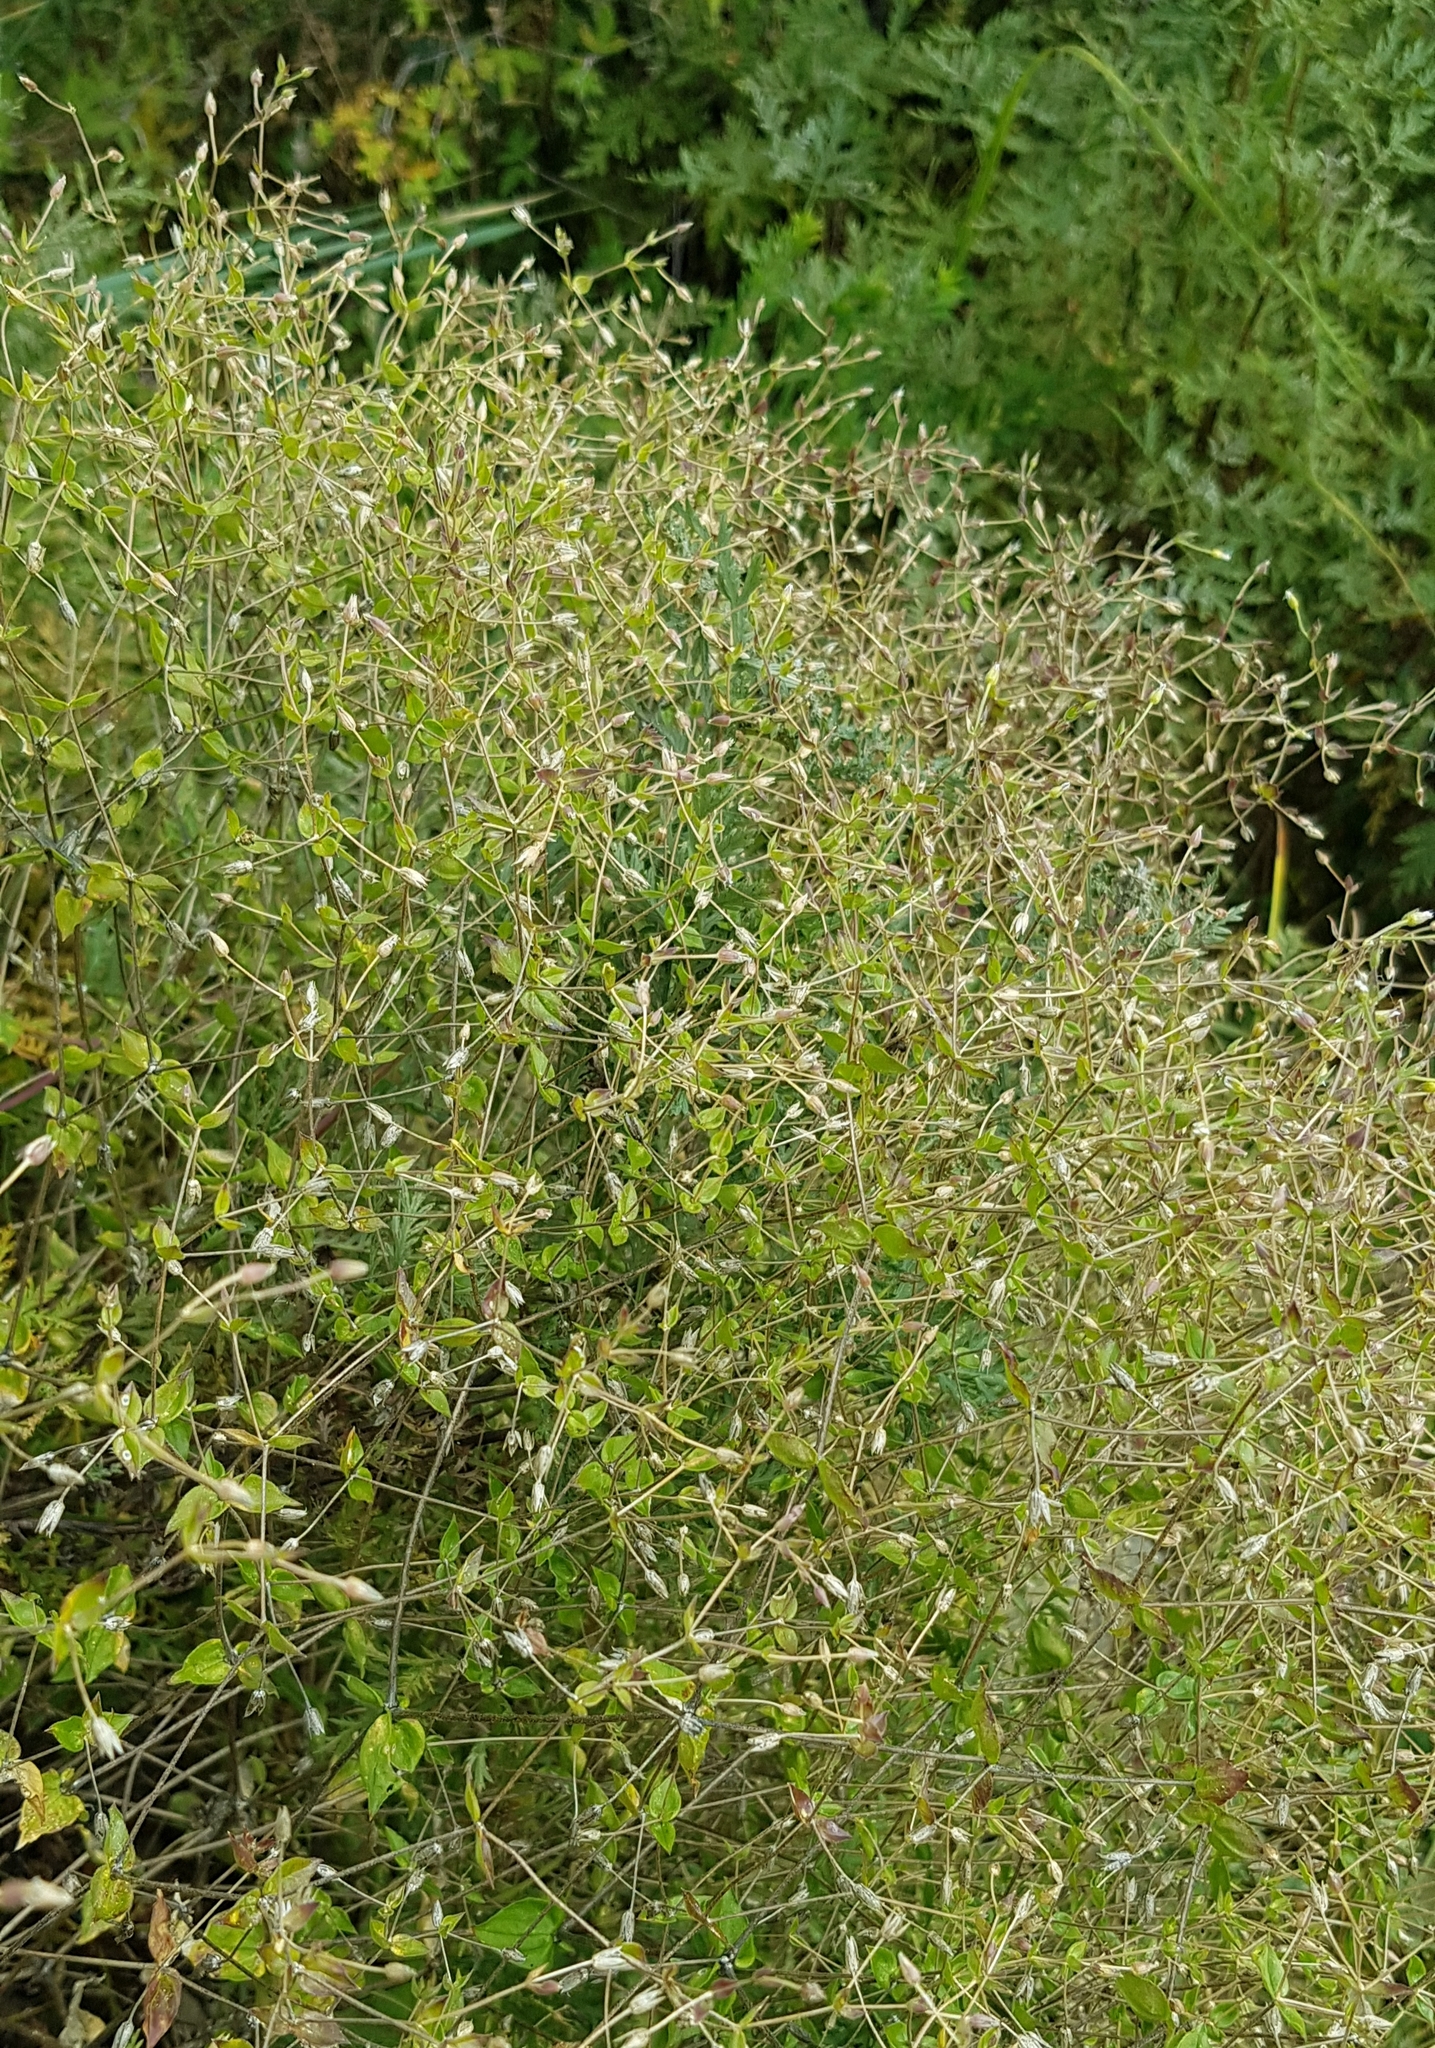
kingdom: Plantae
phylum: Tracheophyta
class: Magnoliopsida
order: Caryophyllales
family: Caryophyllaceae
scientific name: Caryophyllaceae
